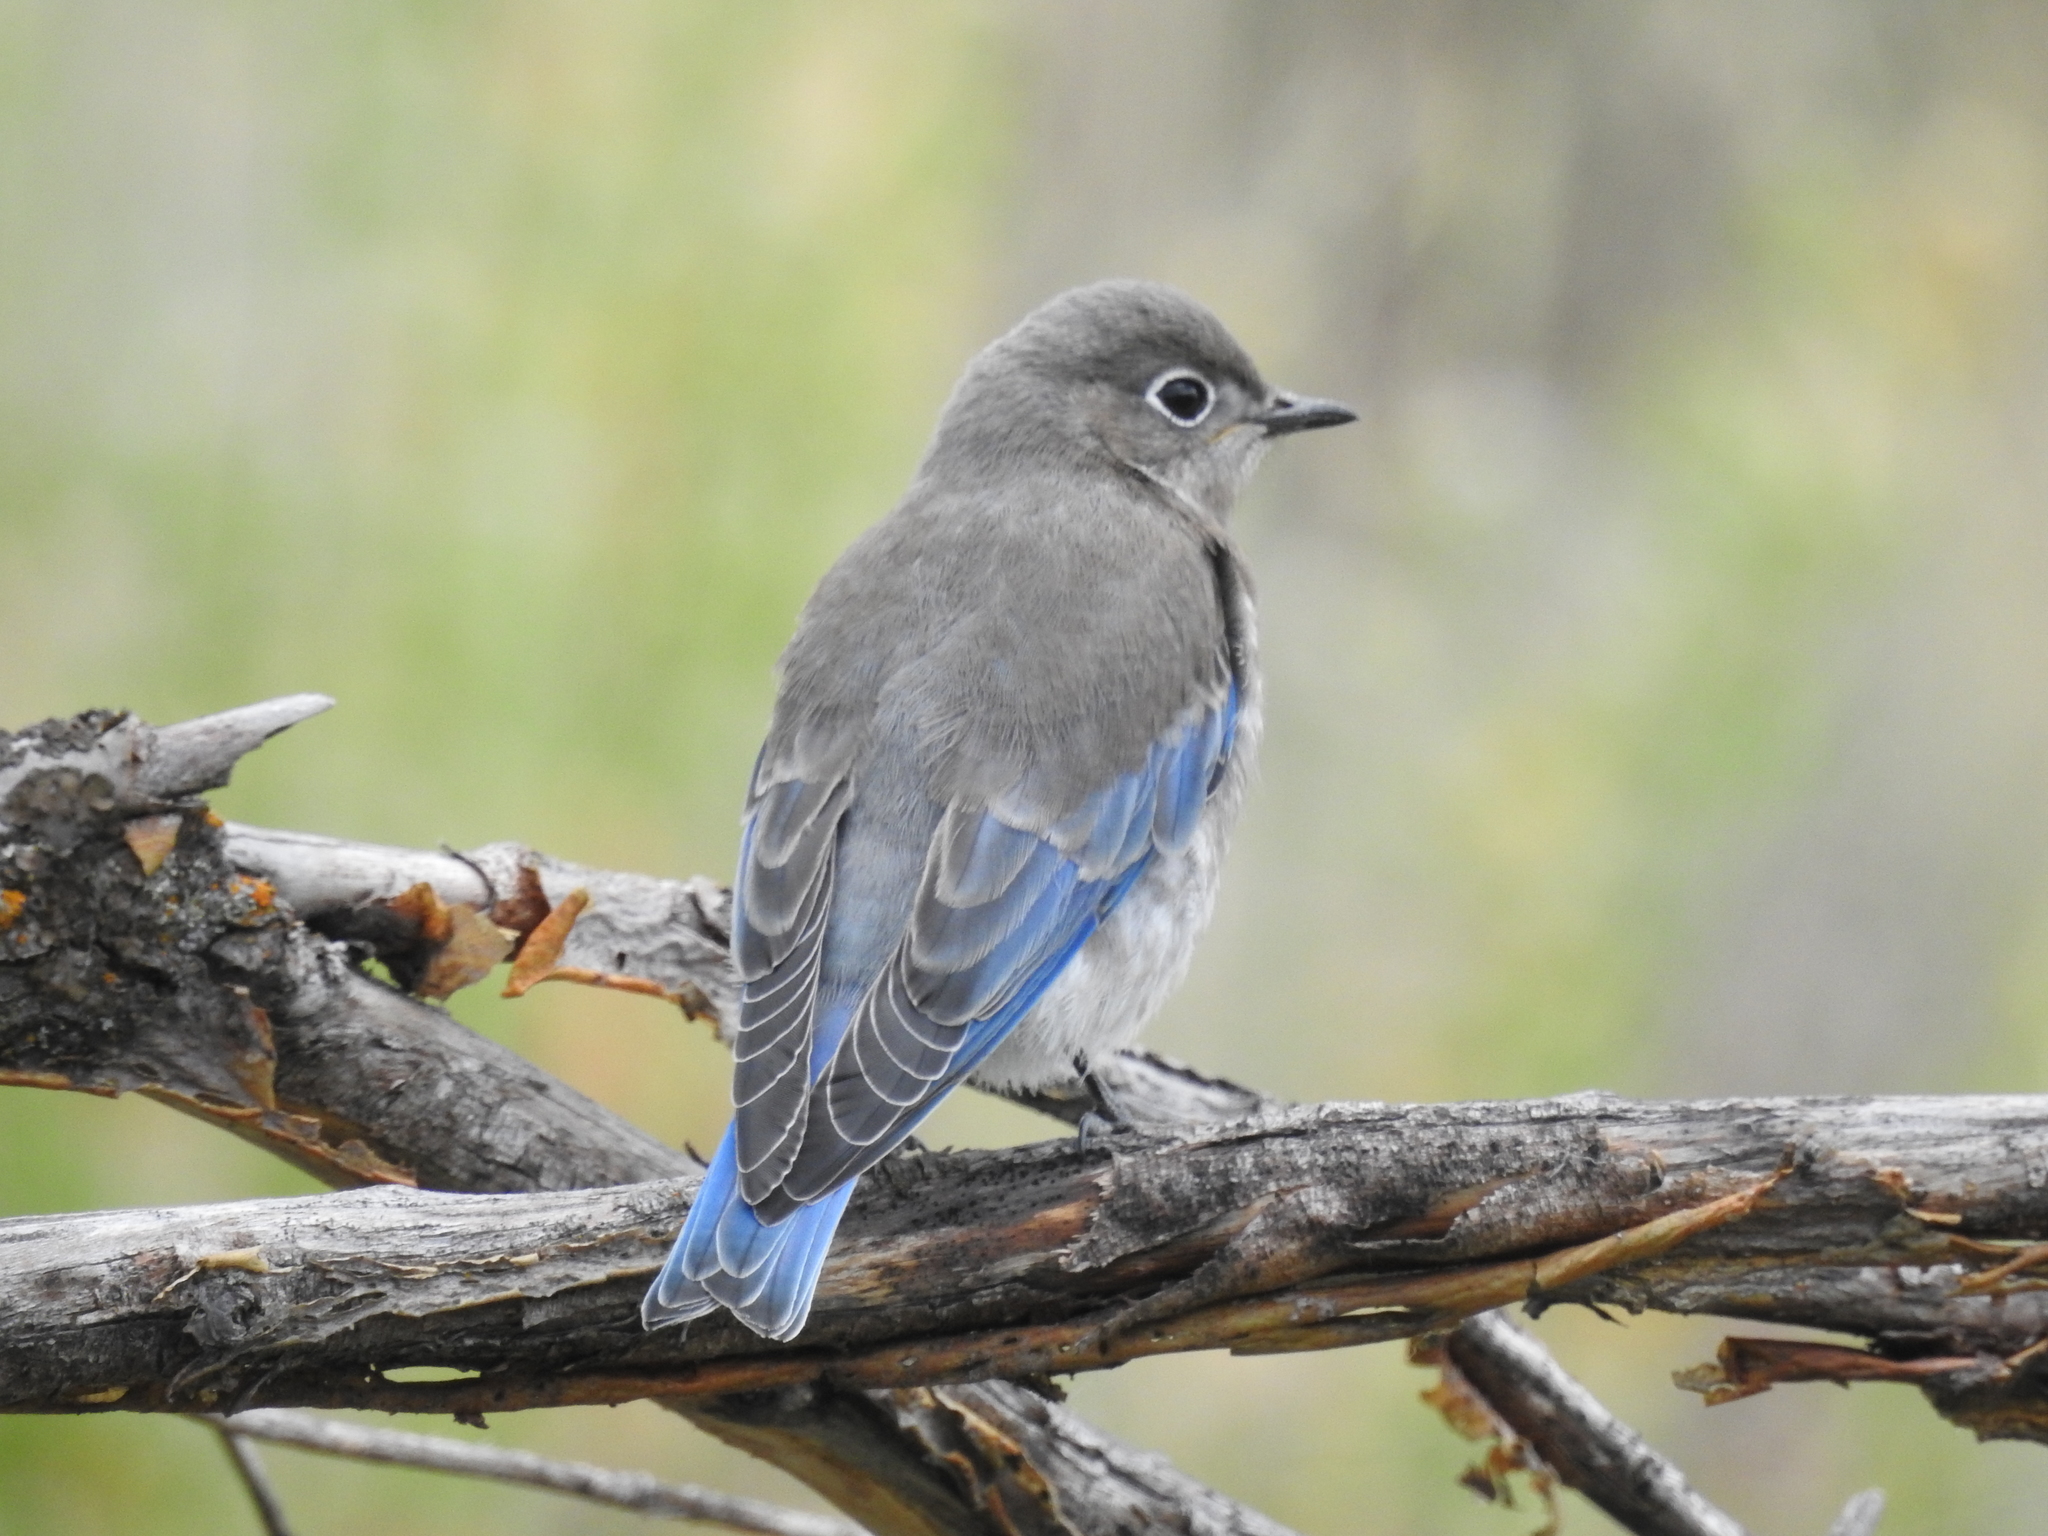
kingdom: Animalia
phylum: Chordata
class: Aves
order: Passeriformes
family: Turdidae
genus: Sialia
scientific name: Sialia currucoides
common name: Mountain bluebird
